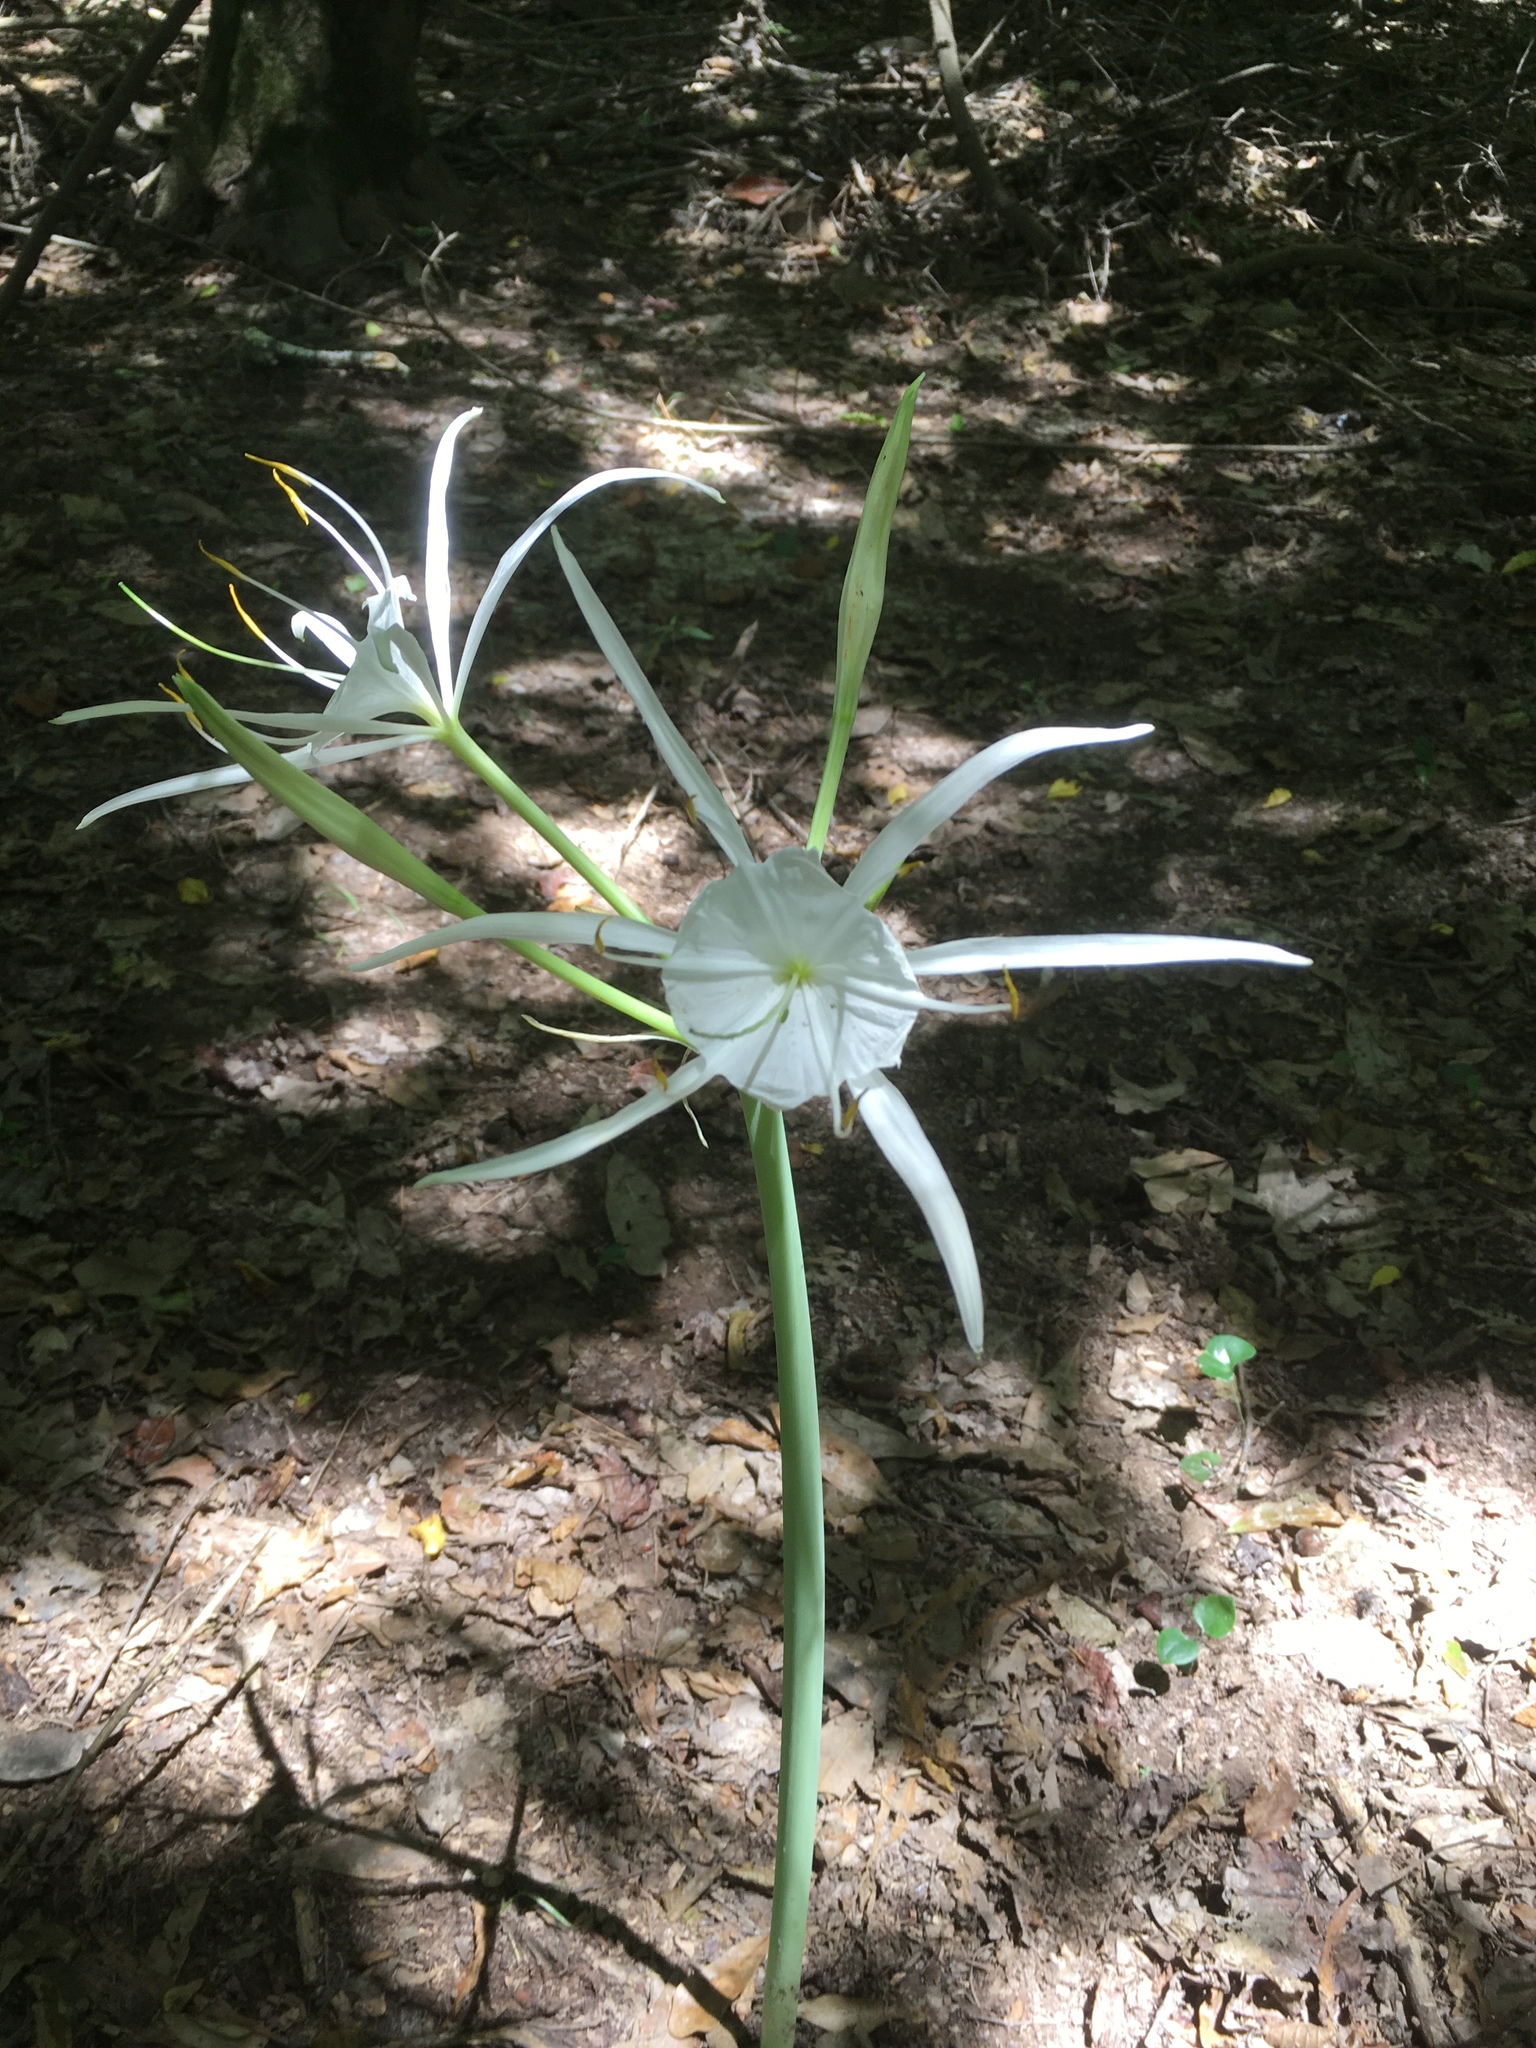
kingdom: Plantae
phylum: Tracheophyta
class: Liliopsida
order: Asparagales
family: Amaryllidaceae
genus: Hymenocallis
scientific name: Hymenocallis occidentalis
